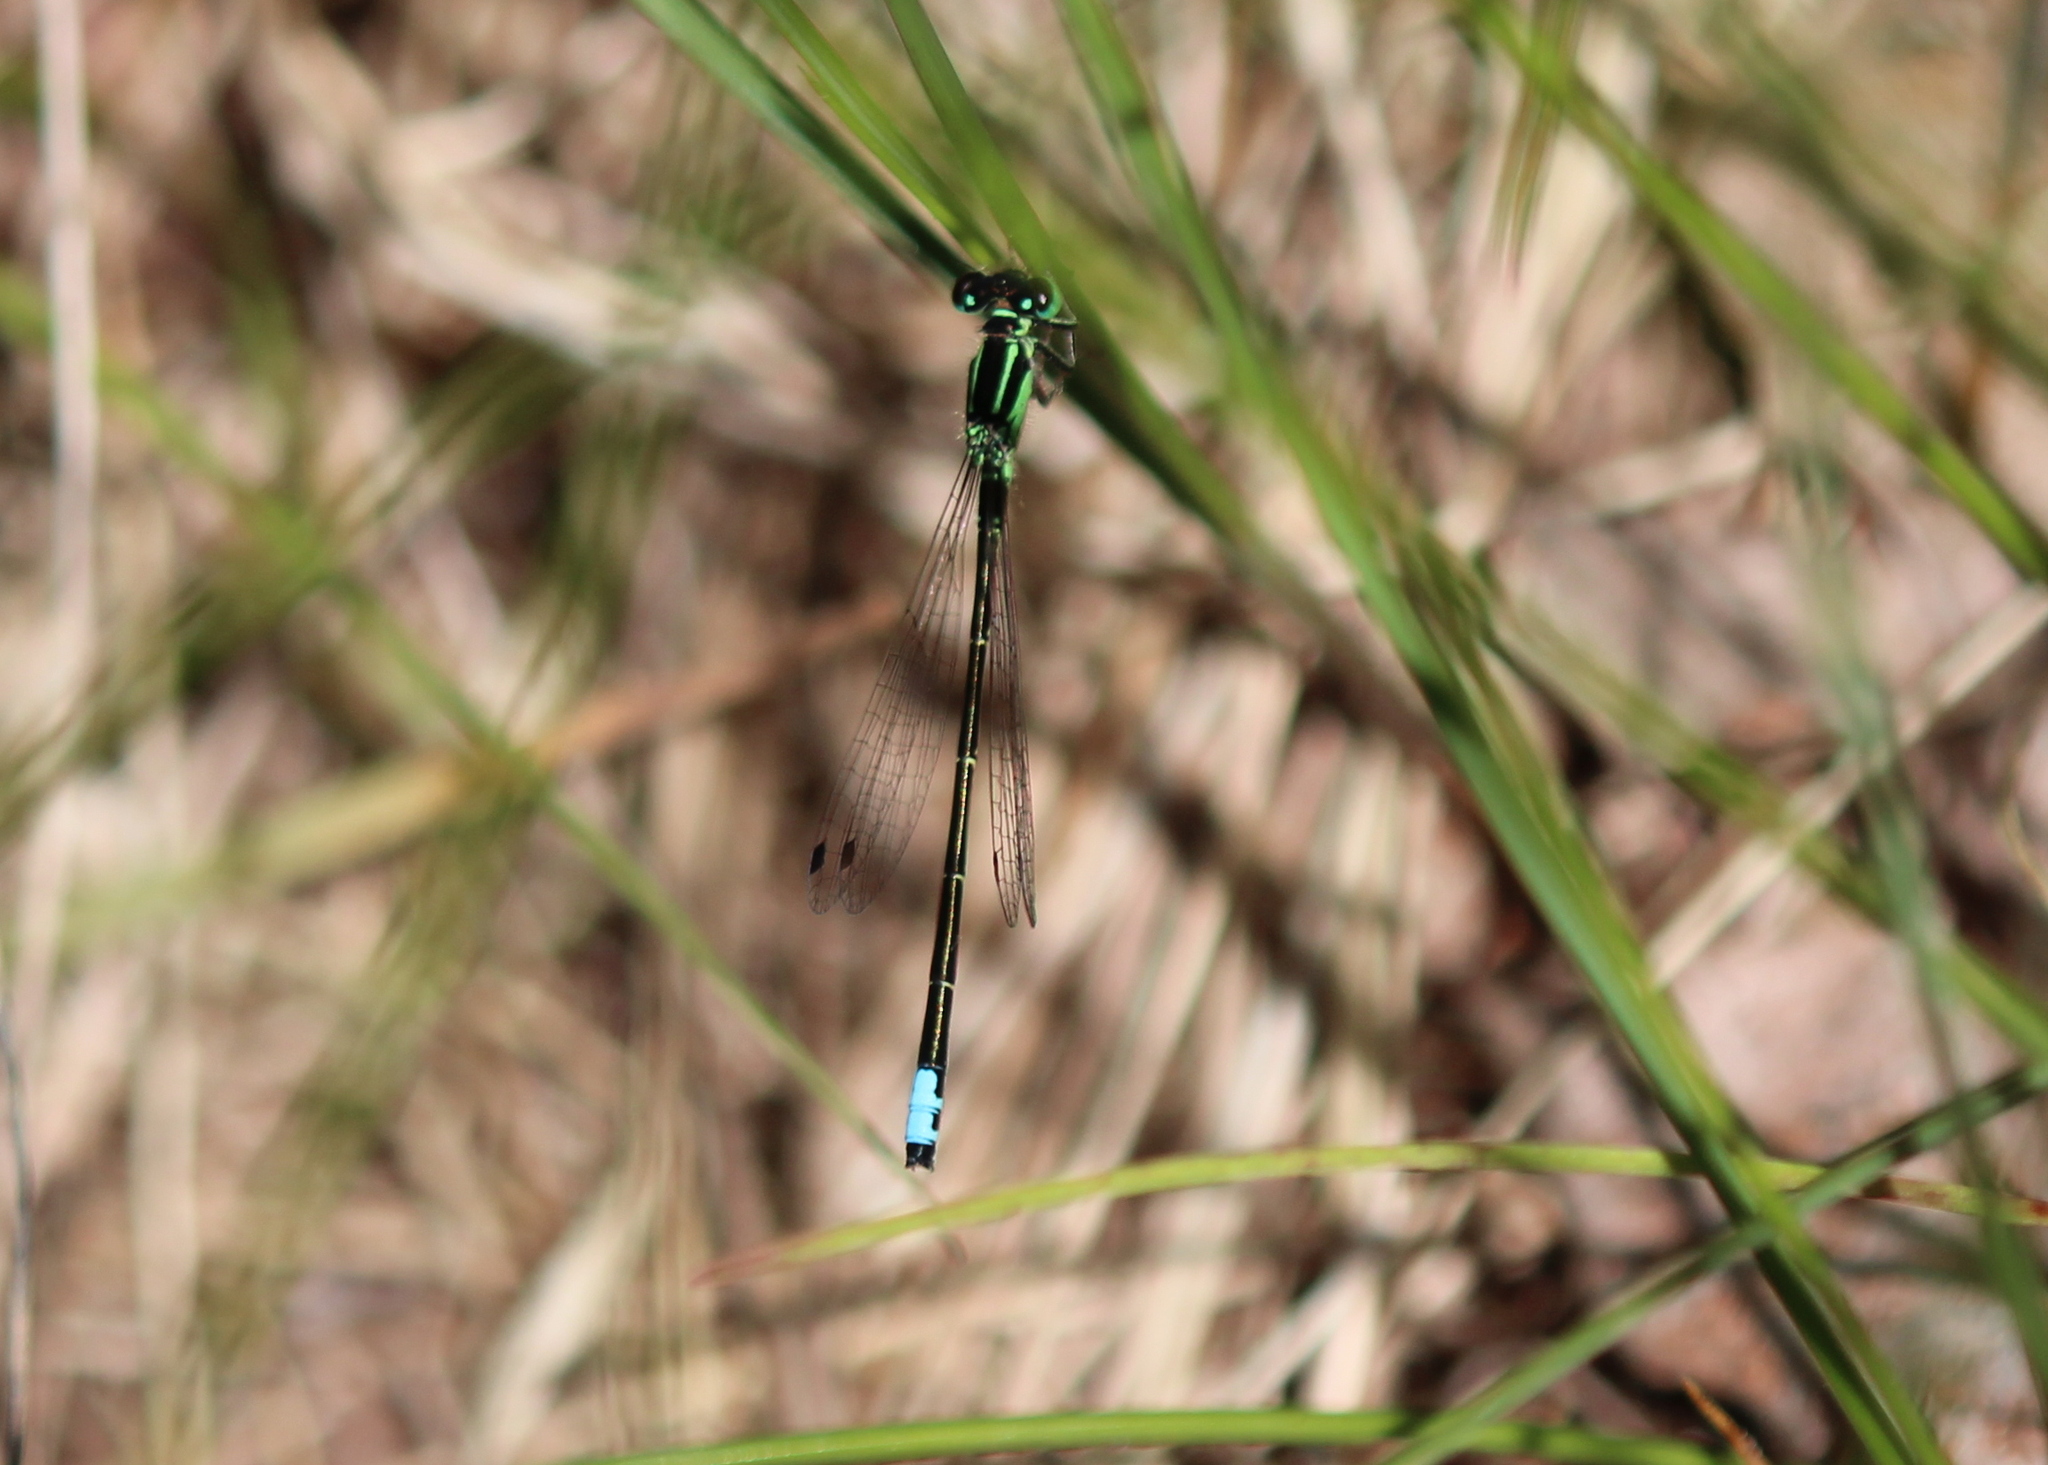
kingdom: Animalia
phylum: Arthropoda
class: Insecta
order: Odonata
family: Coenagrionidae
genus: Ischnura
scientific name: Ischnura verticalis
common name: Eastern forktail
